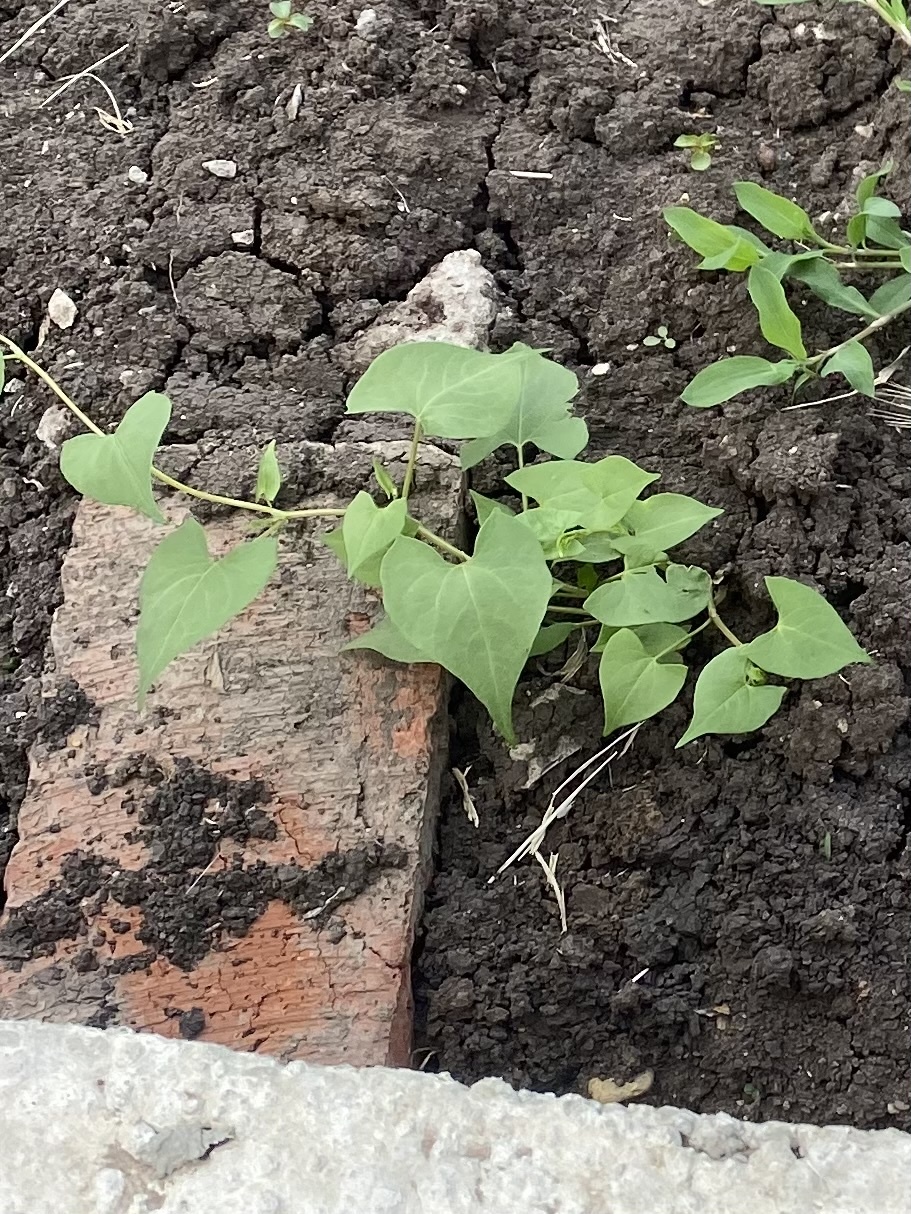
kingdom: Plantae
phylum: Tracheophyta
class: Magnoliopsida
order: Caryophyllales
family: Polygonaceae
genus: Fallopia
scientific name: Fallopia convolvulus
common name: Black bindweed
